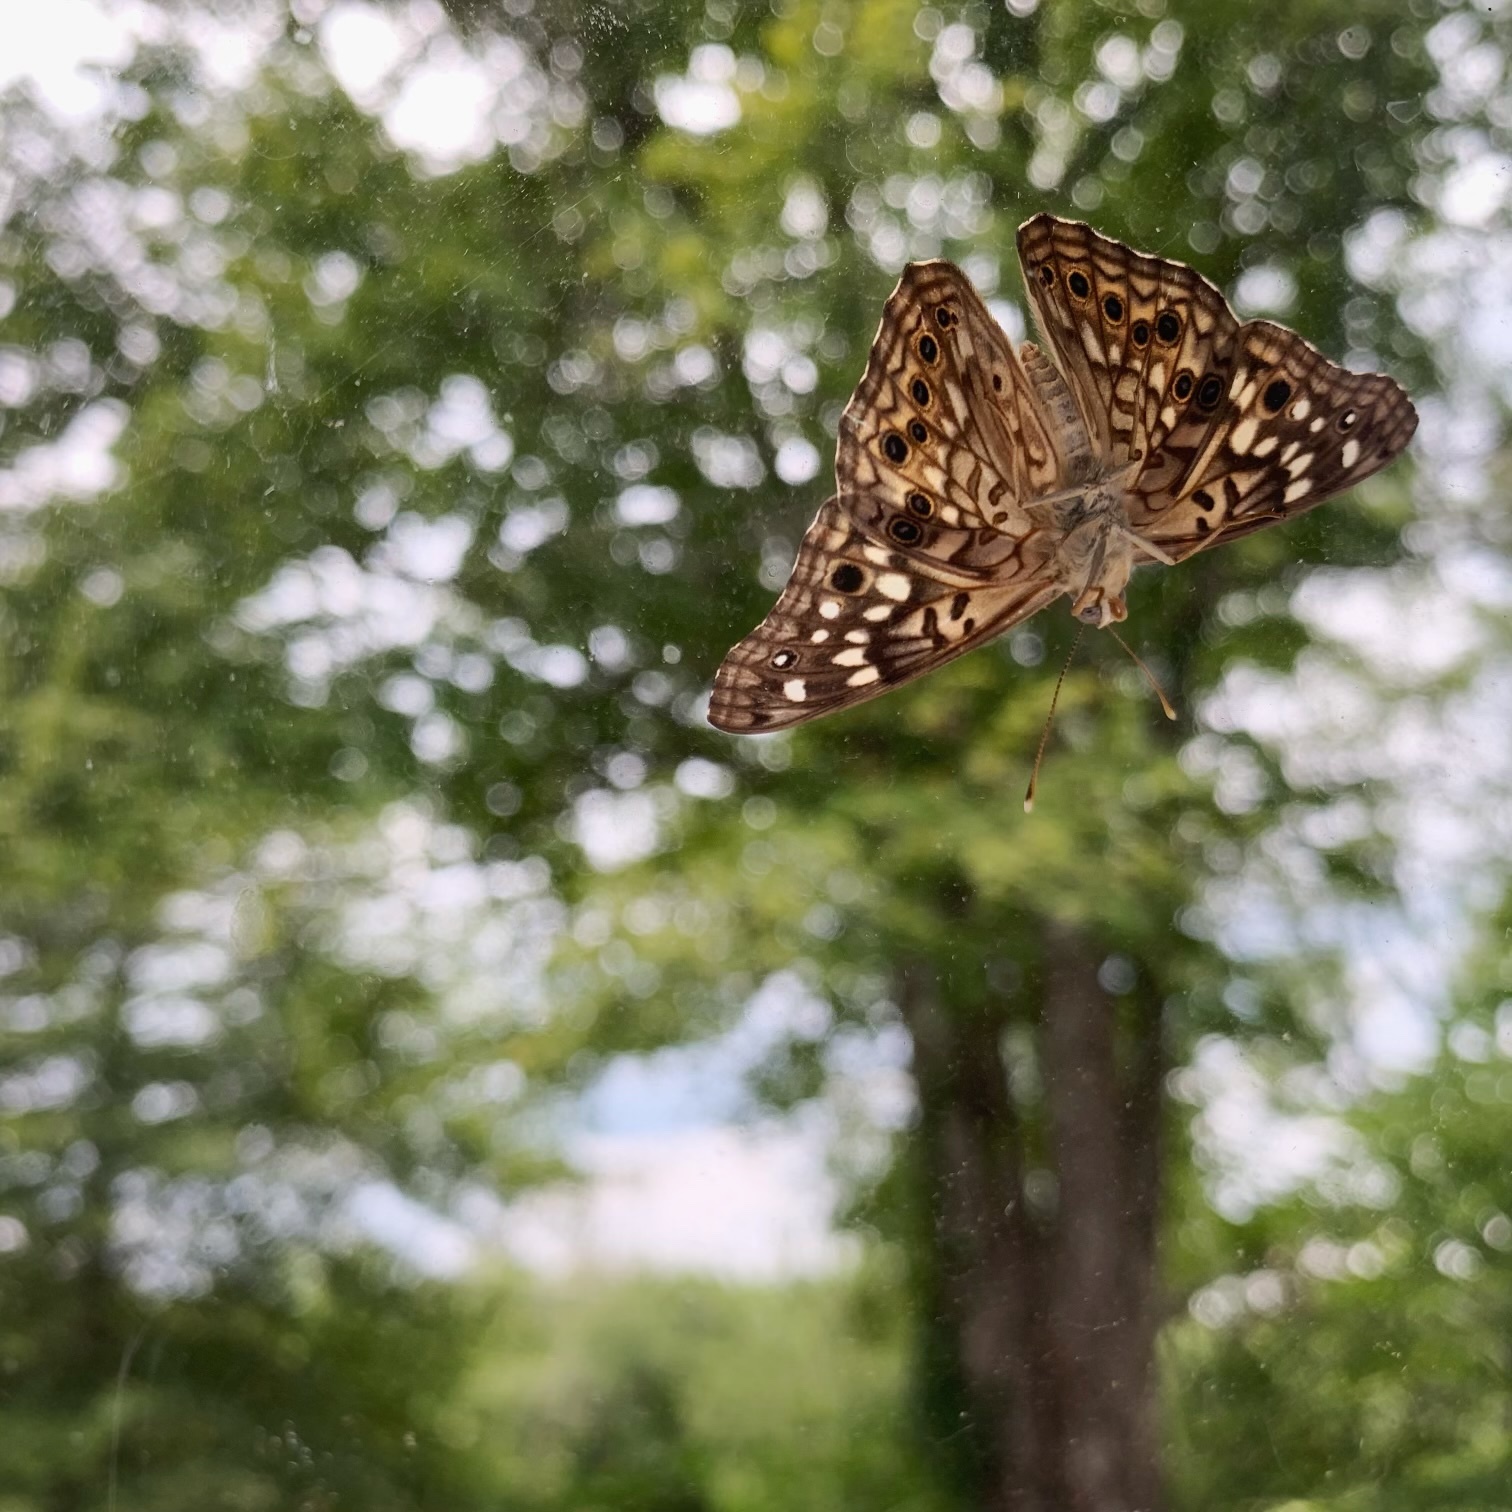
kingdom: Animalia
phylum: Arthropoda
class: Insecta
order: Lepidoptera
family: Nymphalidae
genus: Asterocampa
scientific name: Asterocampa celtis
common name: Hackberry emperor
